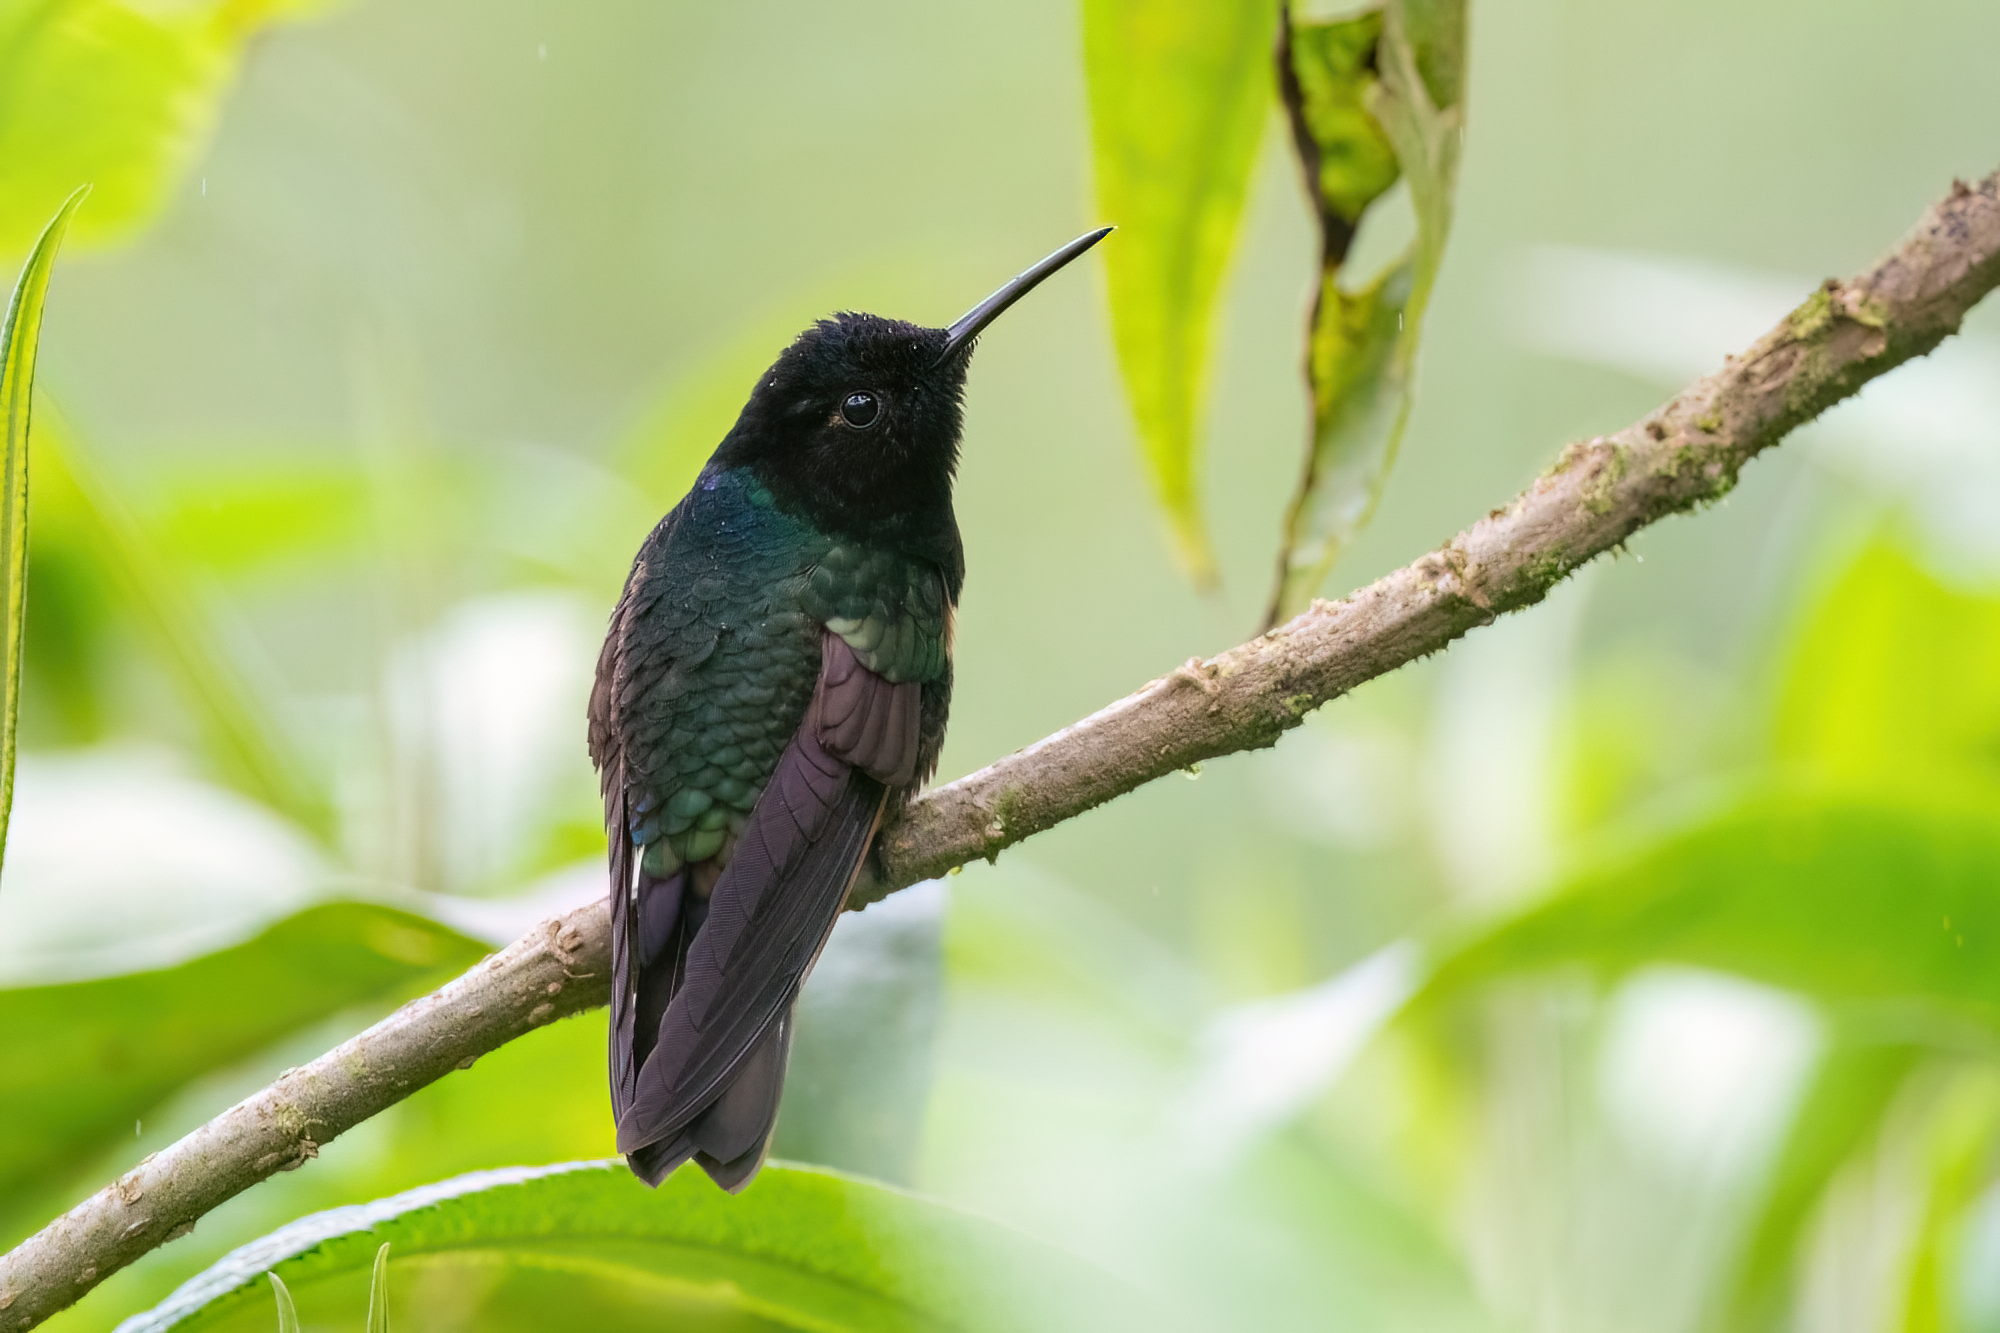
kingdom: Animalia
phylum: Chordata
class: Aves
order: Apodiformes
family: Trochilidae
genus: Boissonneaua
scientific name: Boissonneaua jardini
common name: Velvet-purple coronet
